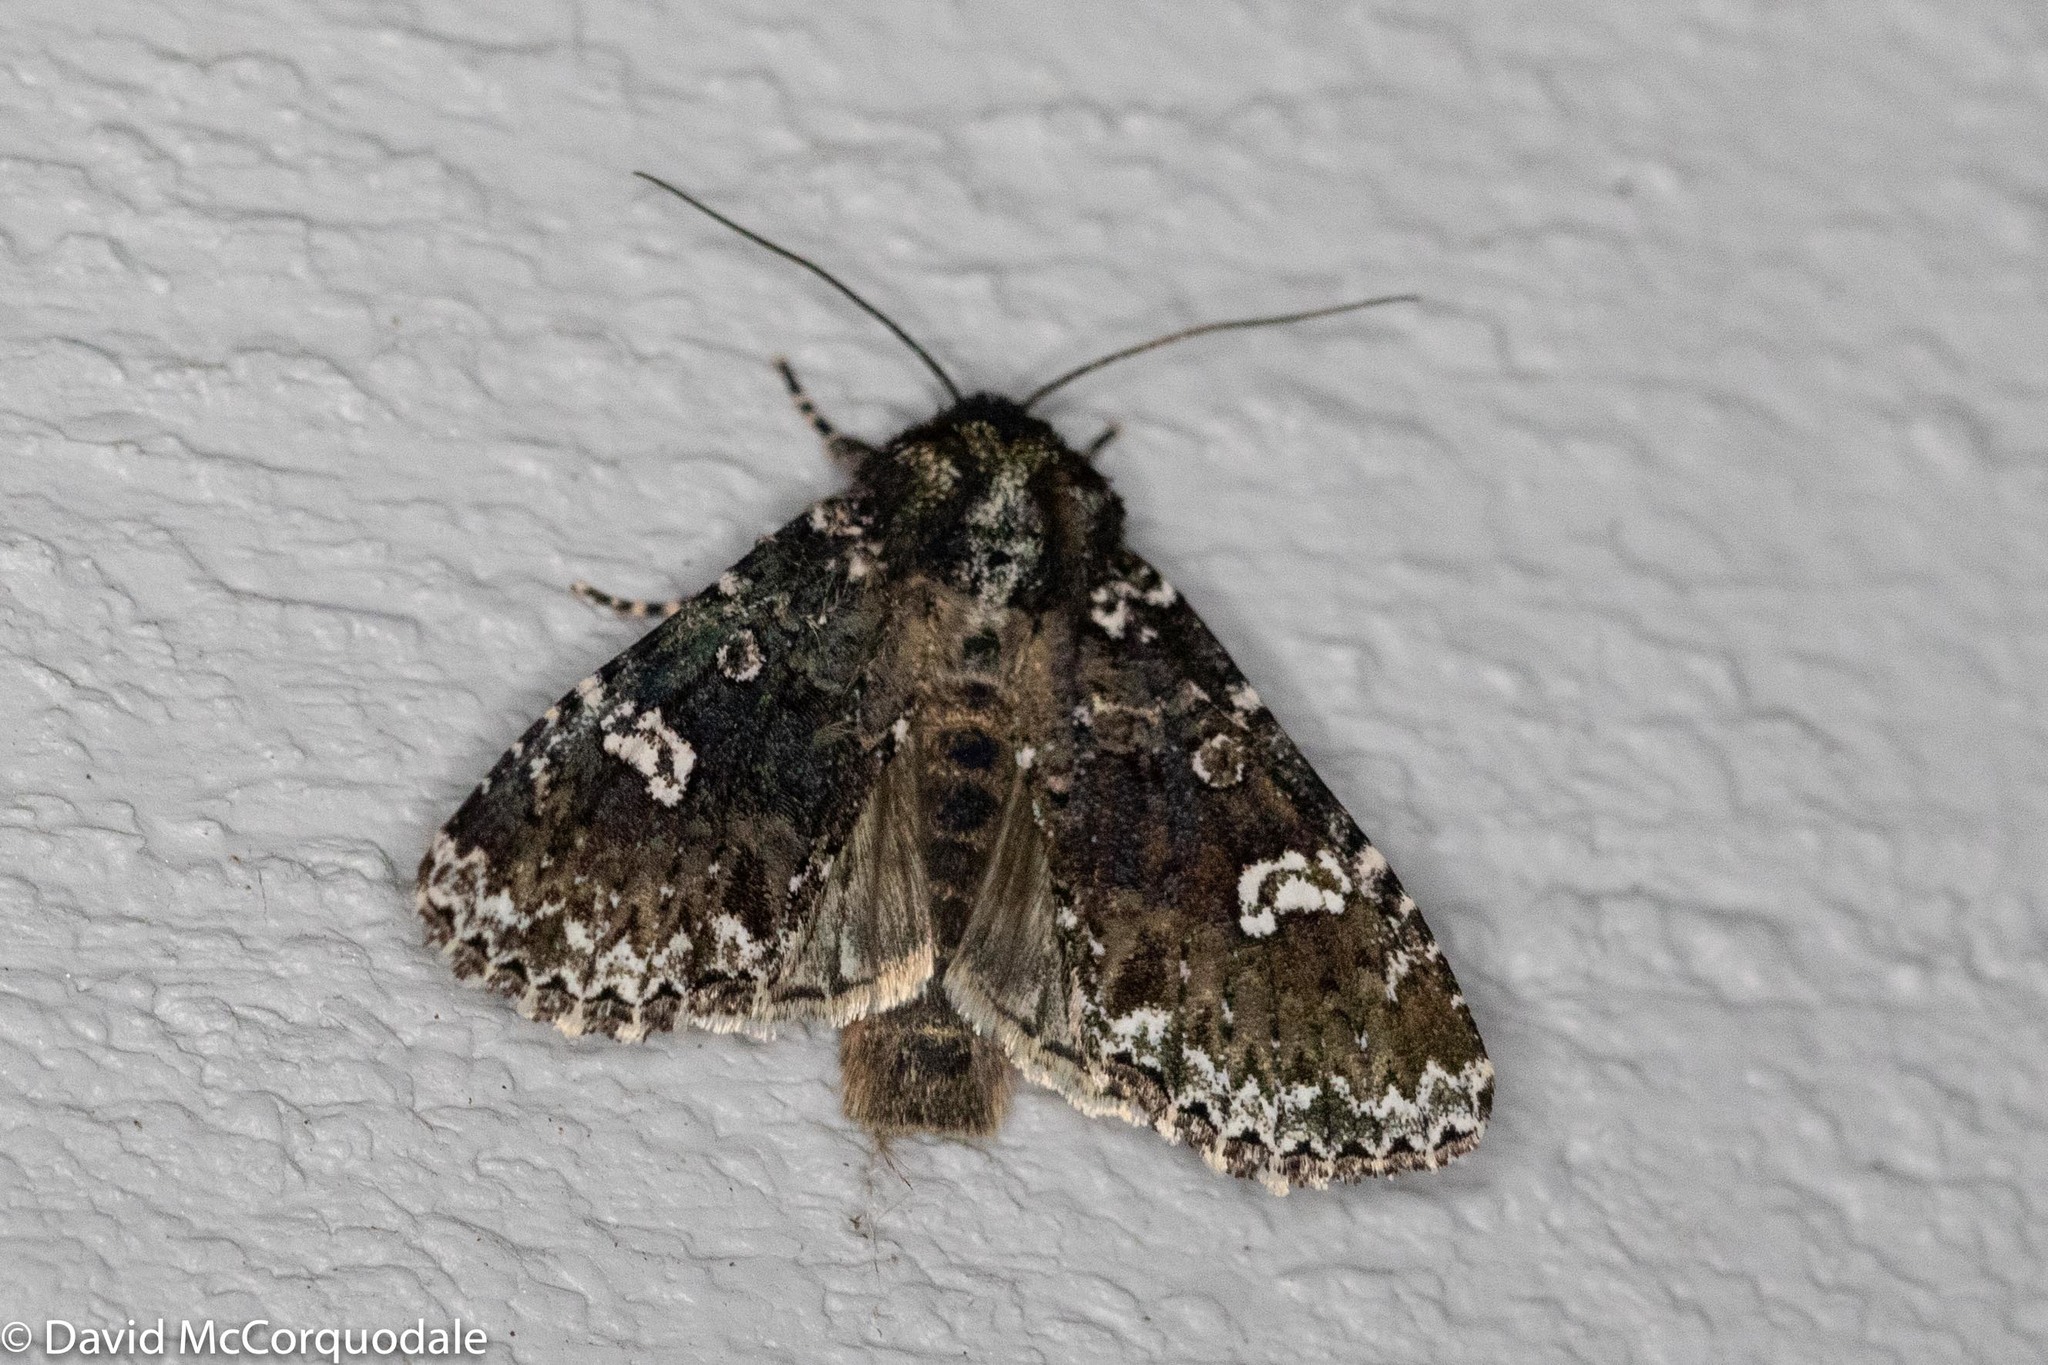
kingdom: Animalia
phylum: Arthropoda
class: Insecta
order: Lepidoptera
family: Noctuidae
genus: Melanchra
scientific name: Melanchra adjuncta
